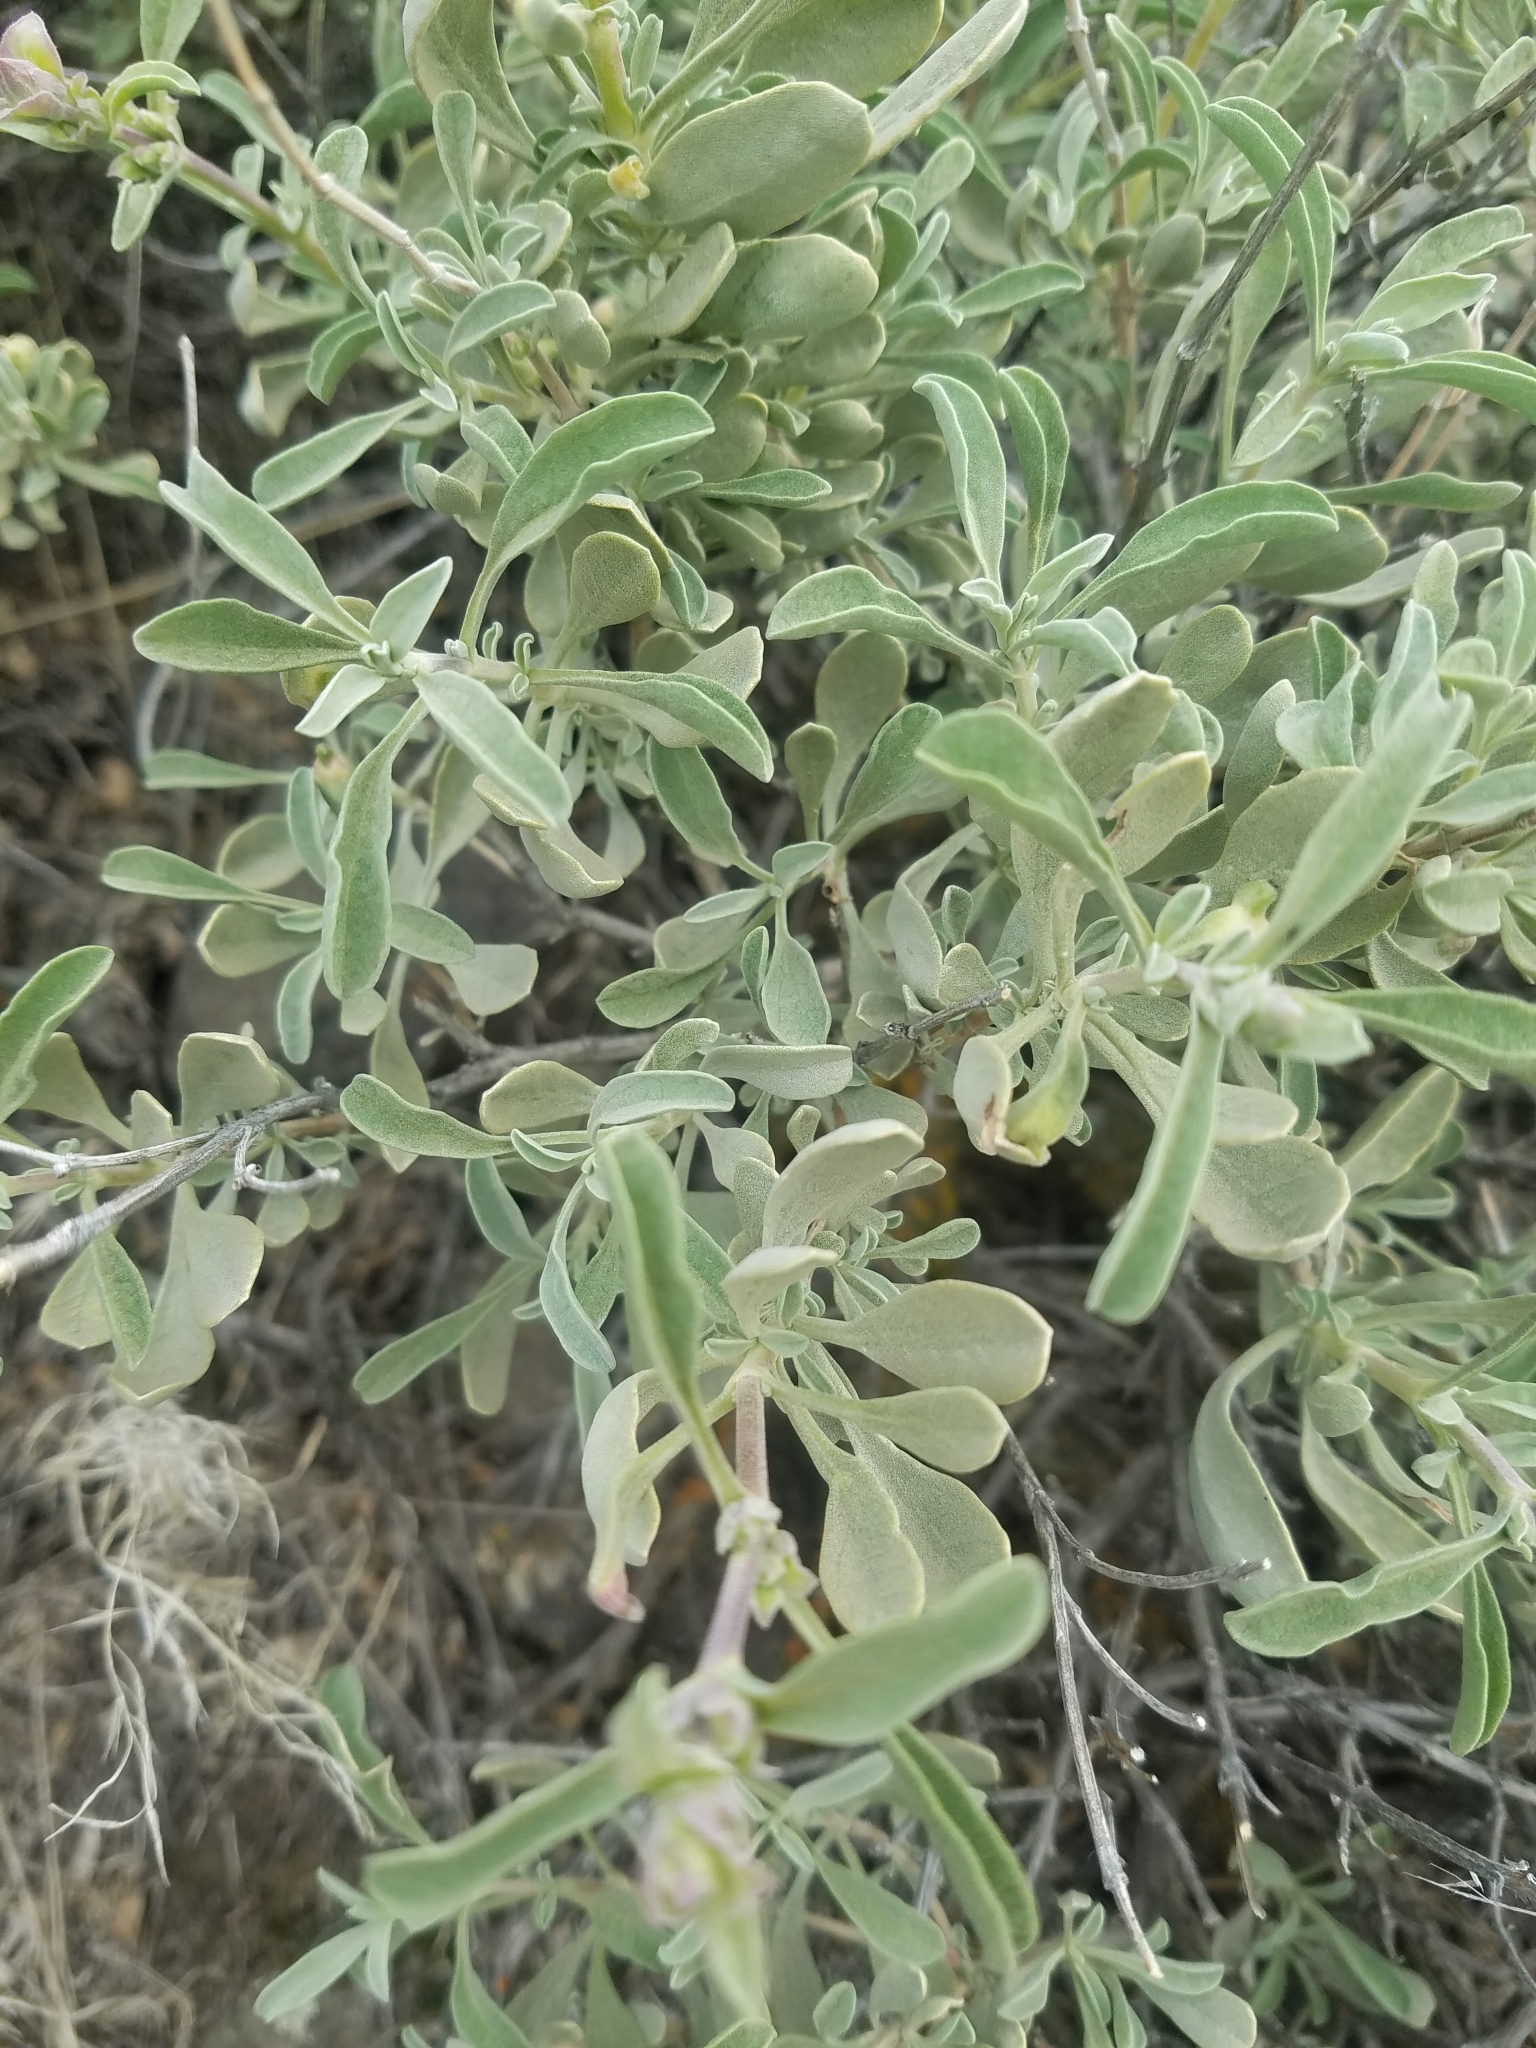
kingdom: Plantae
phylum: Tracheophyta
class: Magnoliopsida
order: Lamiales
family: Lamiaceae
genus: Salvia
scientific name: Salvia dorrii
